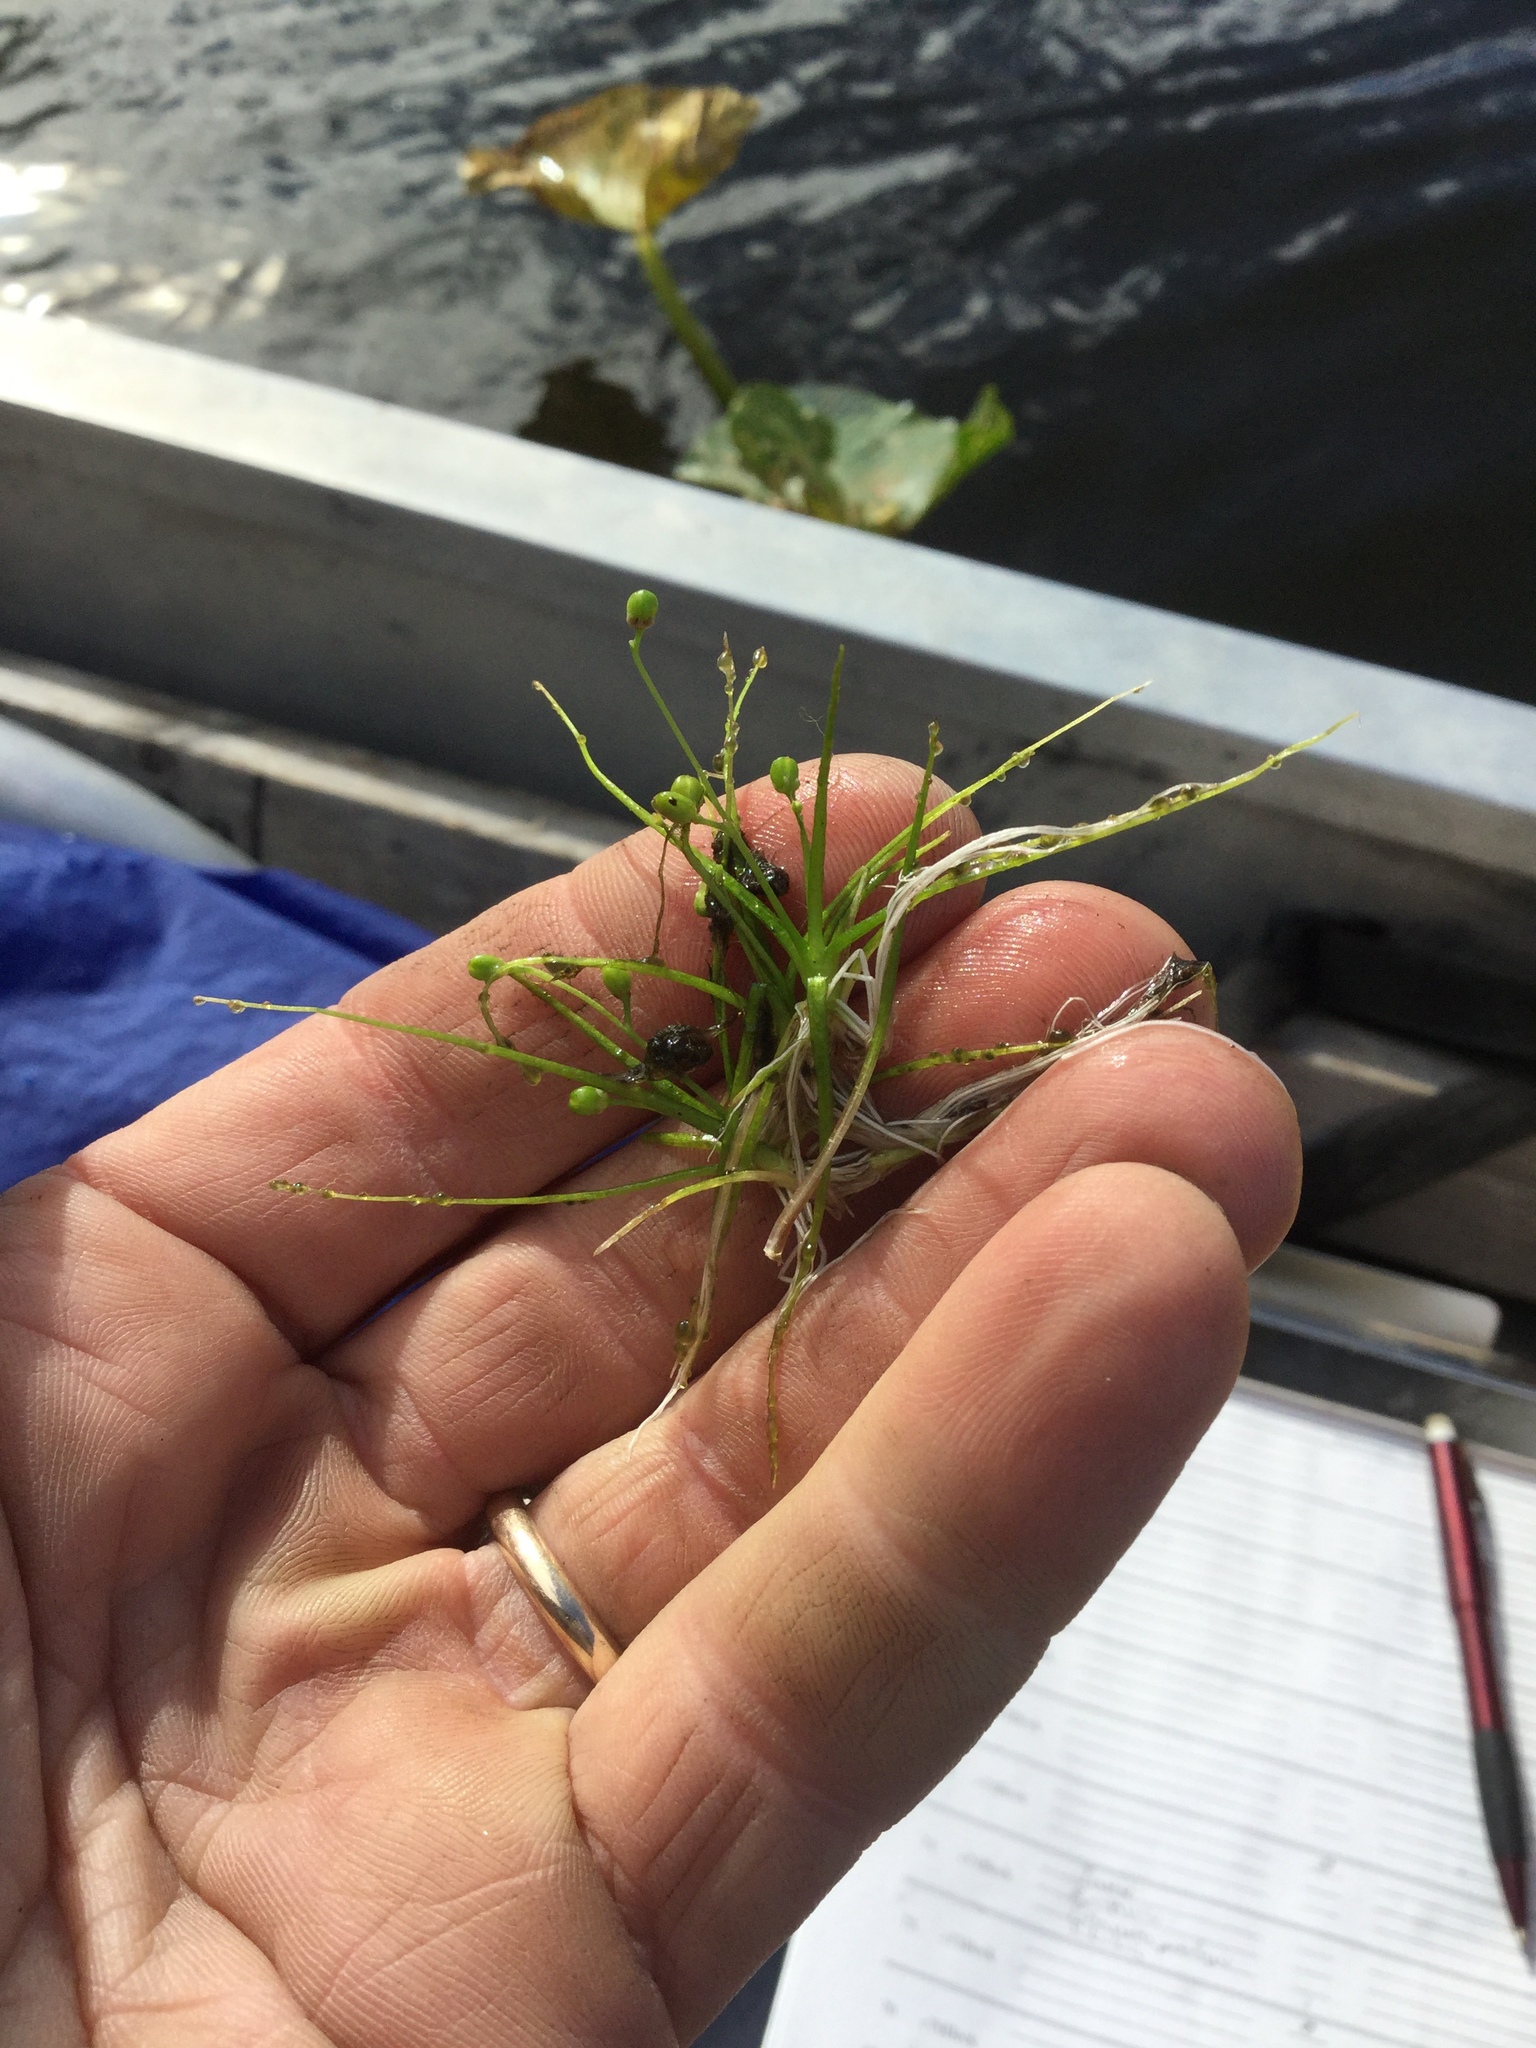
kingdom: Plantae
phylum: Tracheophyta
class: Magnoliopsida
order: Brassicales
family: Brassicaceae
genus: Subularia
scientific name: Subularia aquatica
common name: Awlwort
